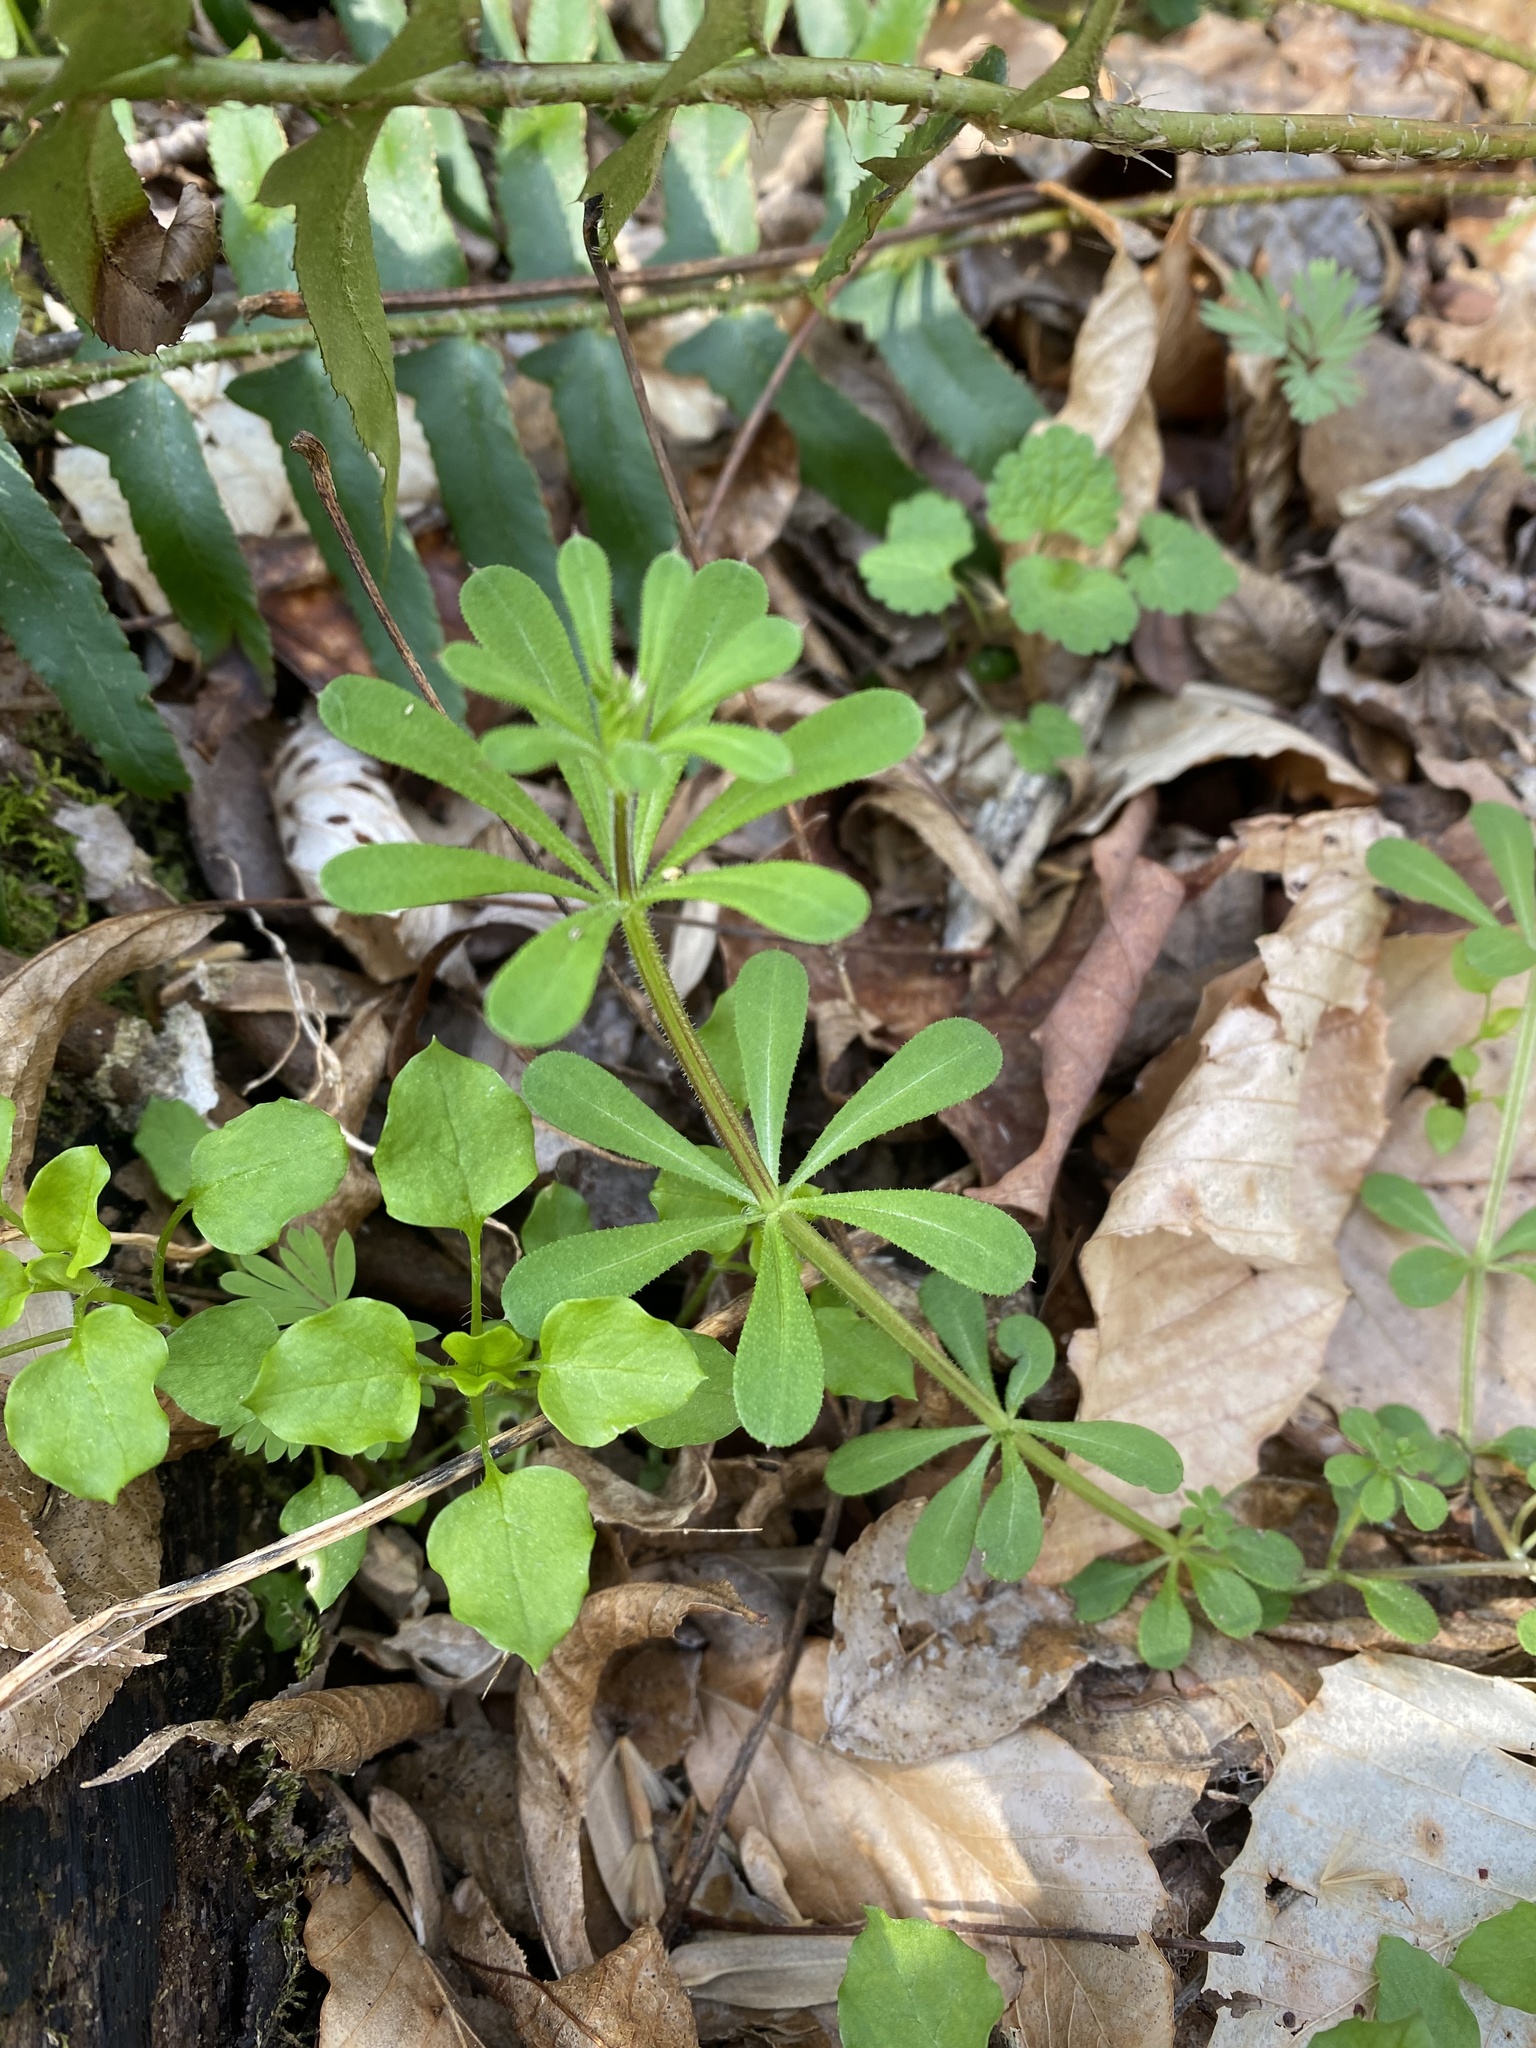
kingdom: Plantae
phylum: Tracheophyta
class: Magnoliopsida
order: Gentianales
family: Rubiaceae
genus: Galium
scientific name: Galium aparine
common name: Cleavers
